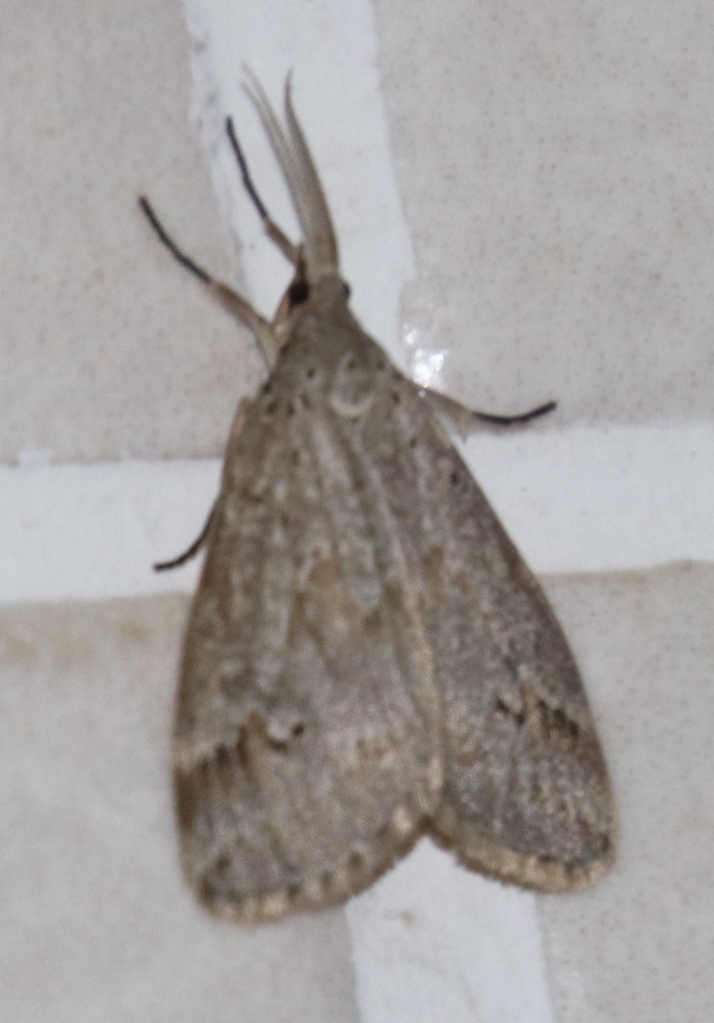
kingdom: Animalia
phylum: Arthropoda
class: Insecta
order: Lepidoptera
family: Erebidae
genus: Galtara
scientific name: Galtara rostrata
